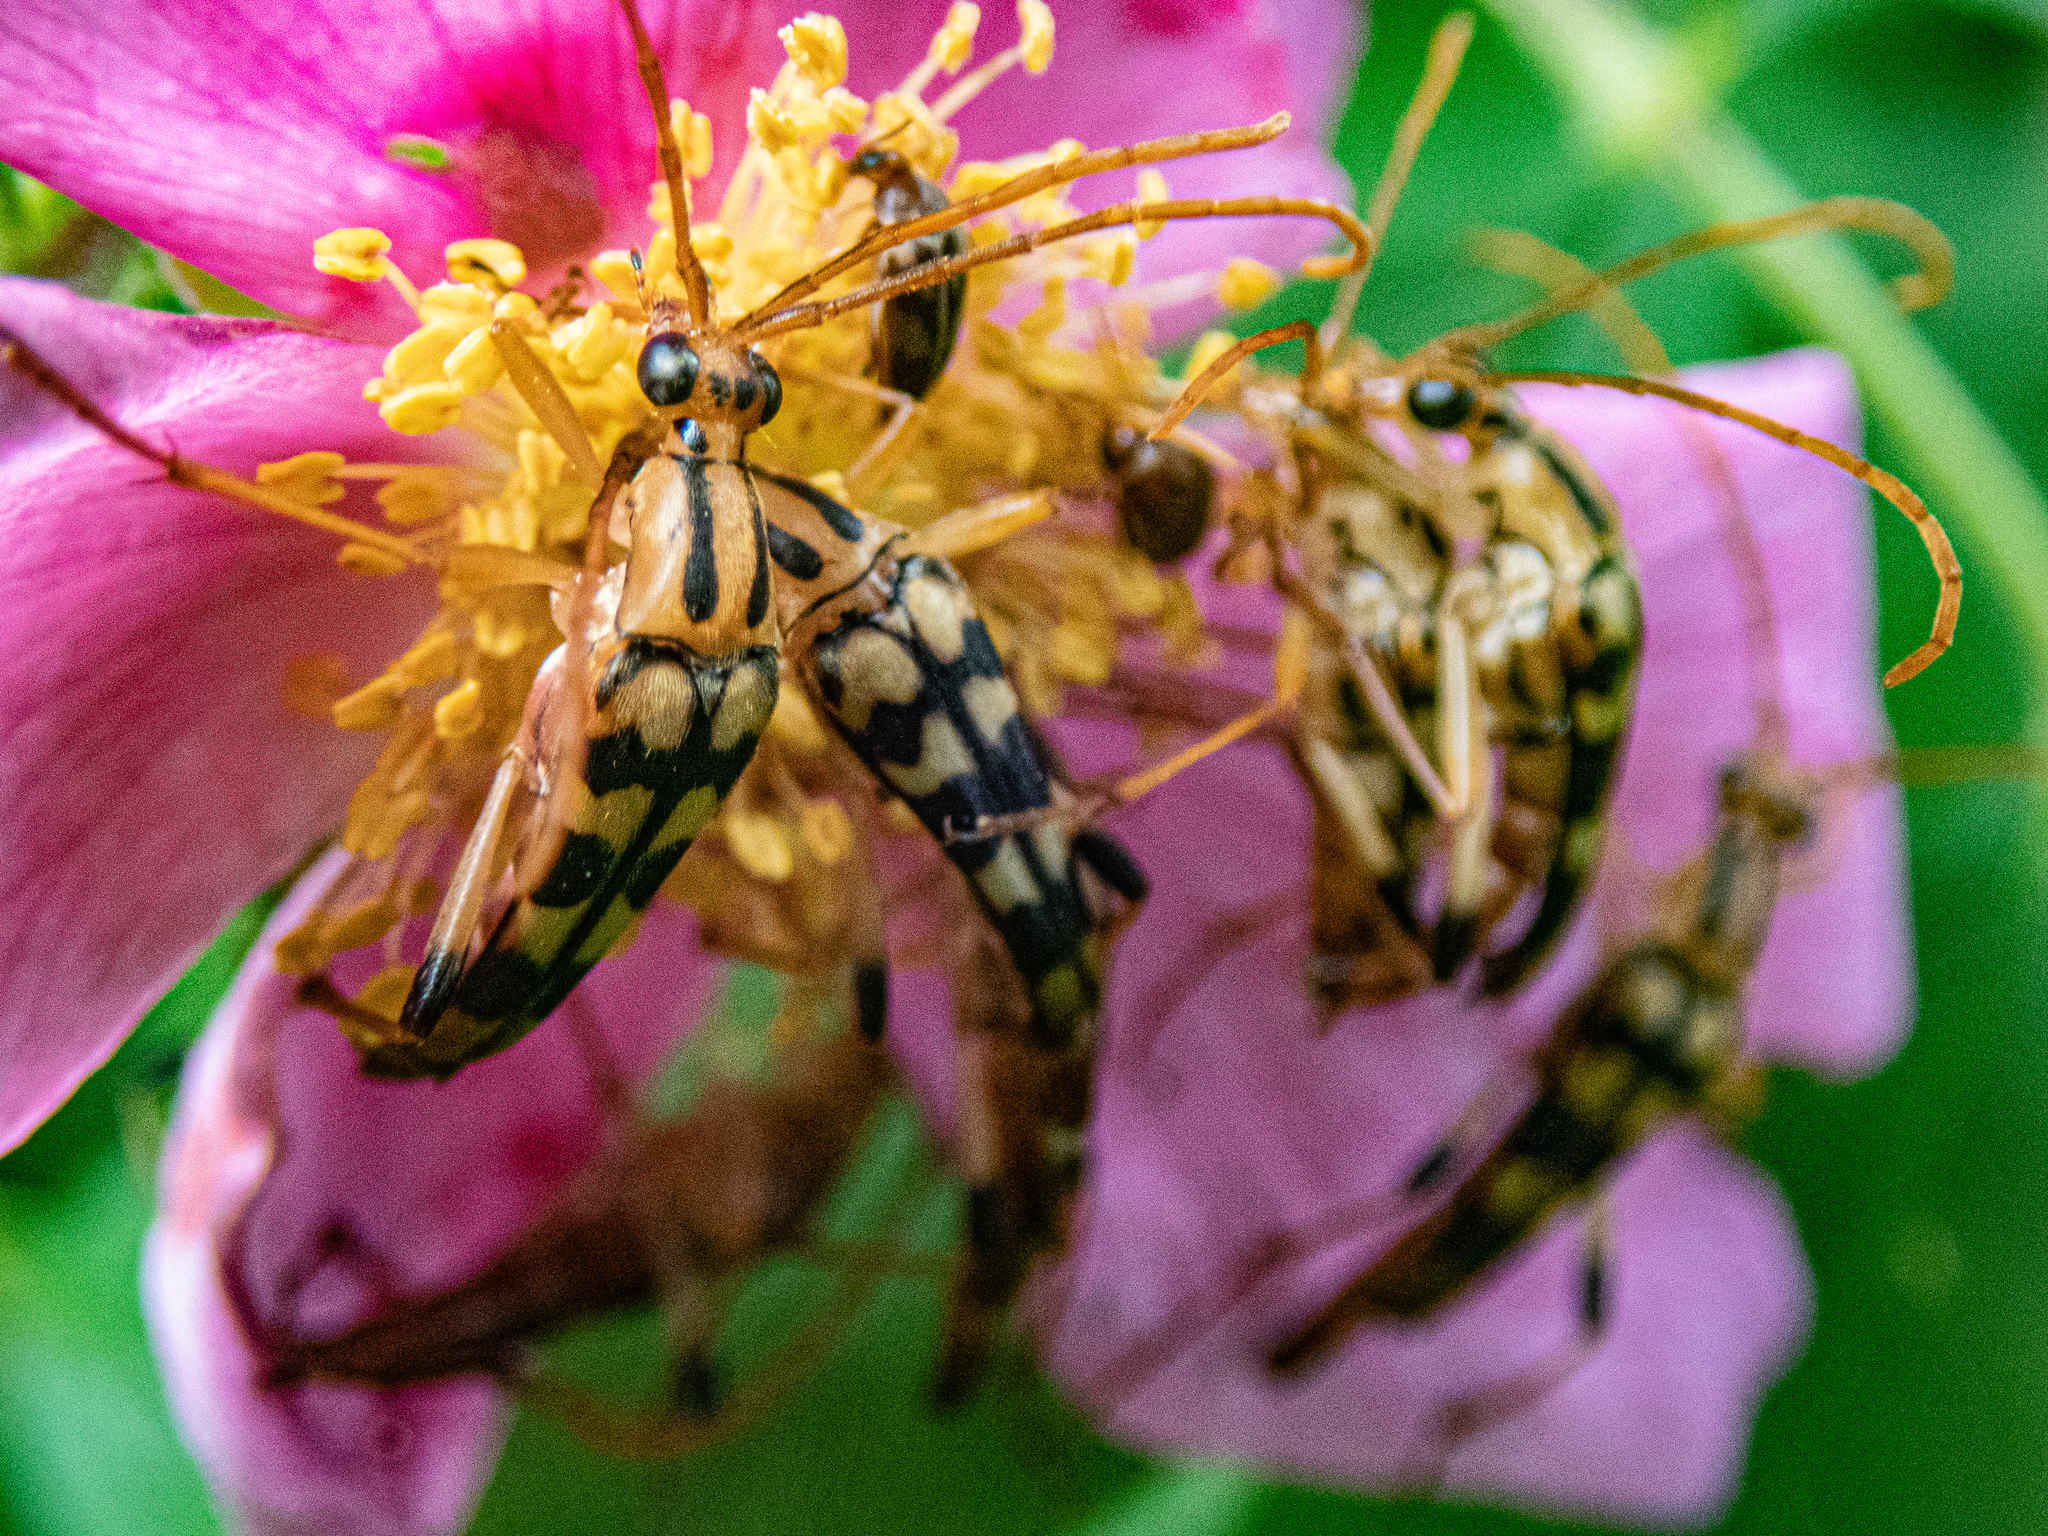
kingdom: Animalia
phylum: Arthropoda
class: Insecta
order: Coleoptera
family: Cerambycidae
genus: Strangalia
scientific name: Strangalia luteicornis
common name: Yellow-horned flower longhorn beetle
